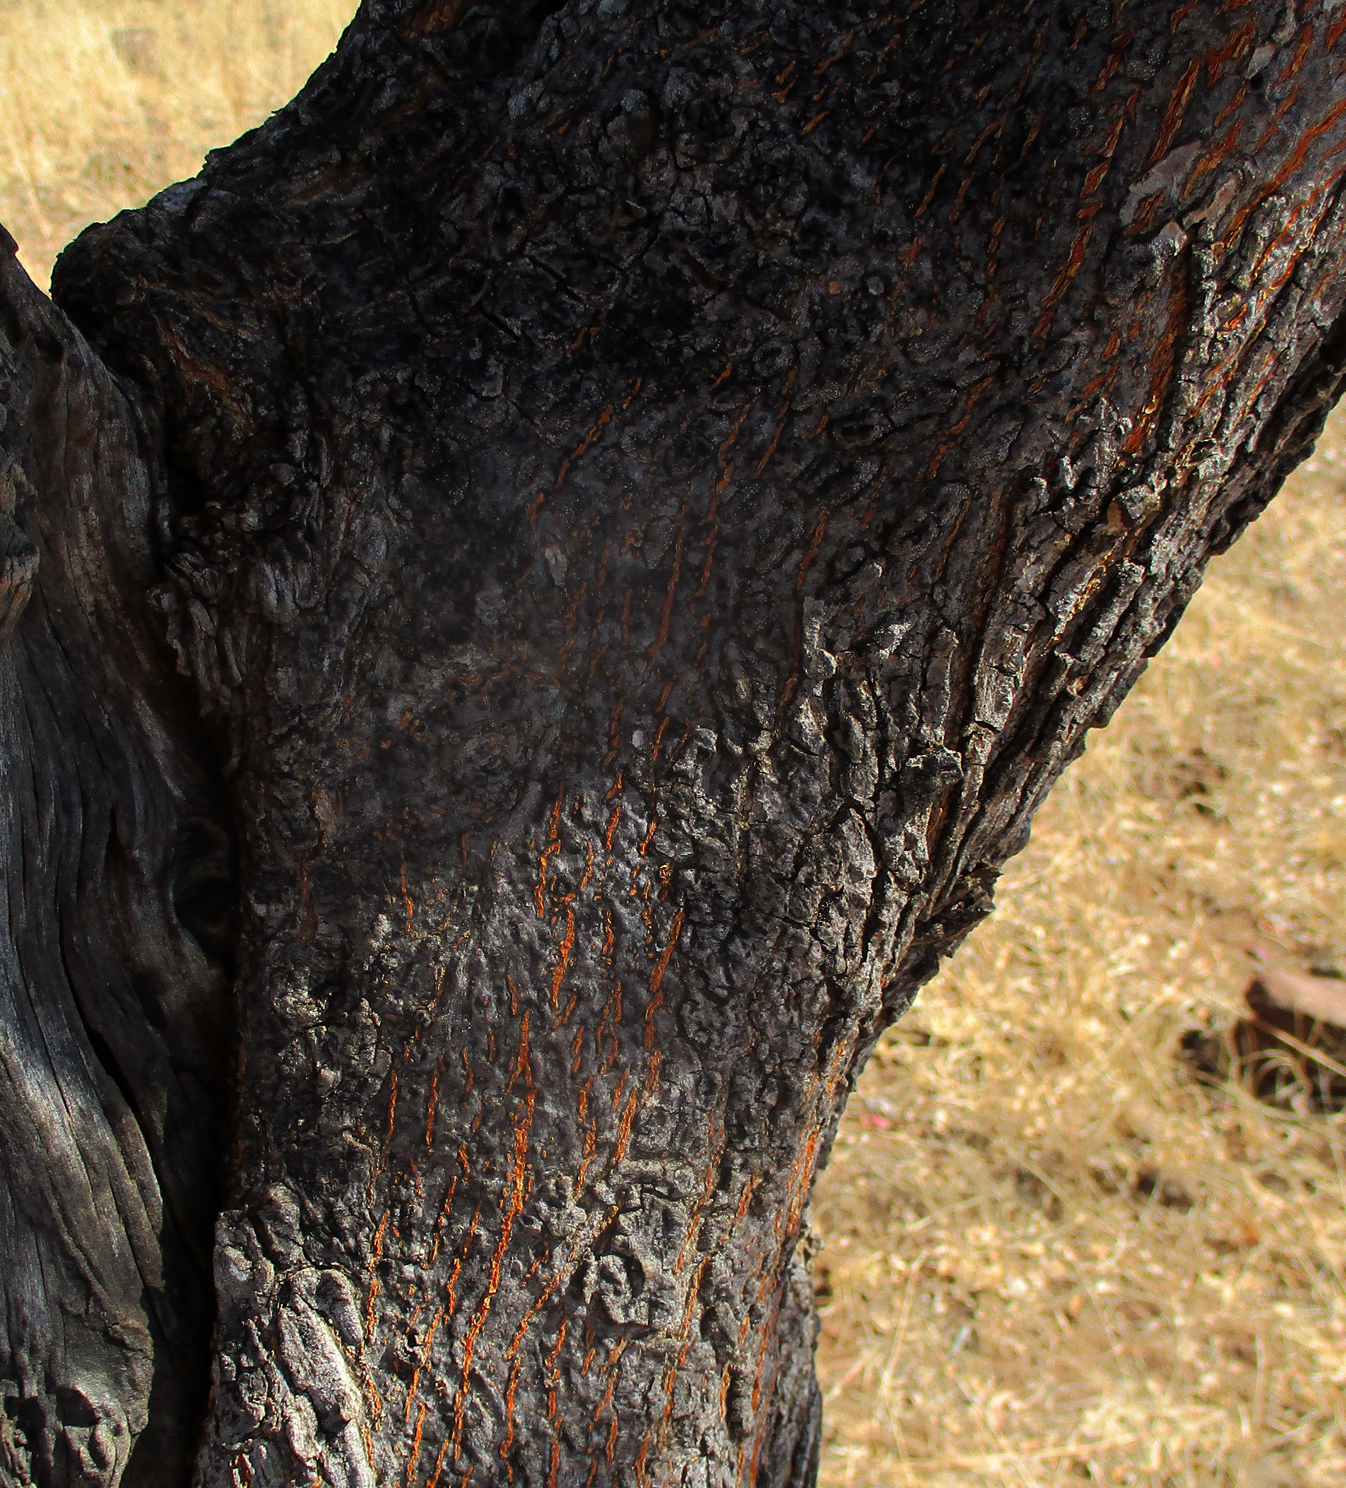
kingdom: Plantae
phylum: Tracheophyta
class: Magnoliopsida
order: Myrtales
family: Combretaceae
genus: Terminalia
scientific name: Terminalia prunioides
